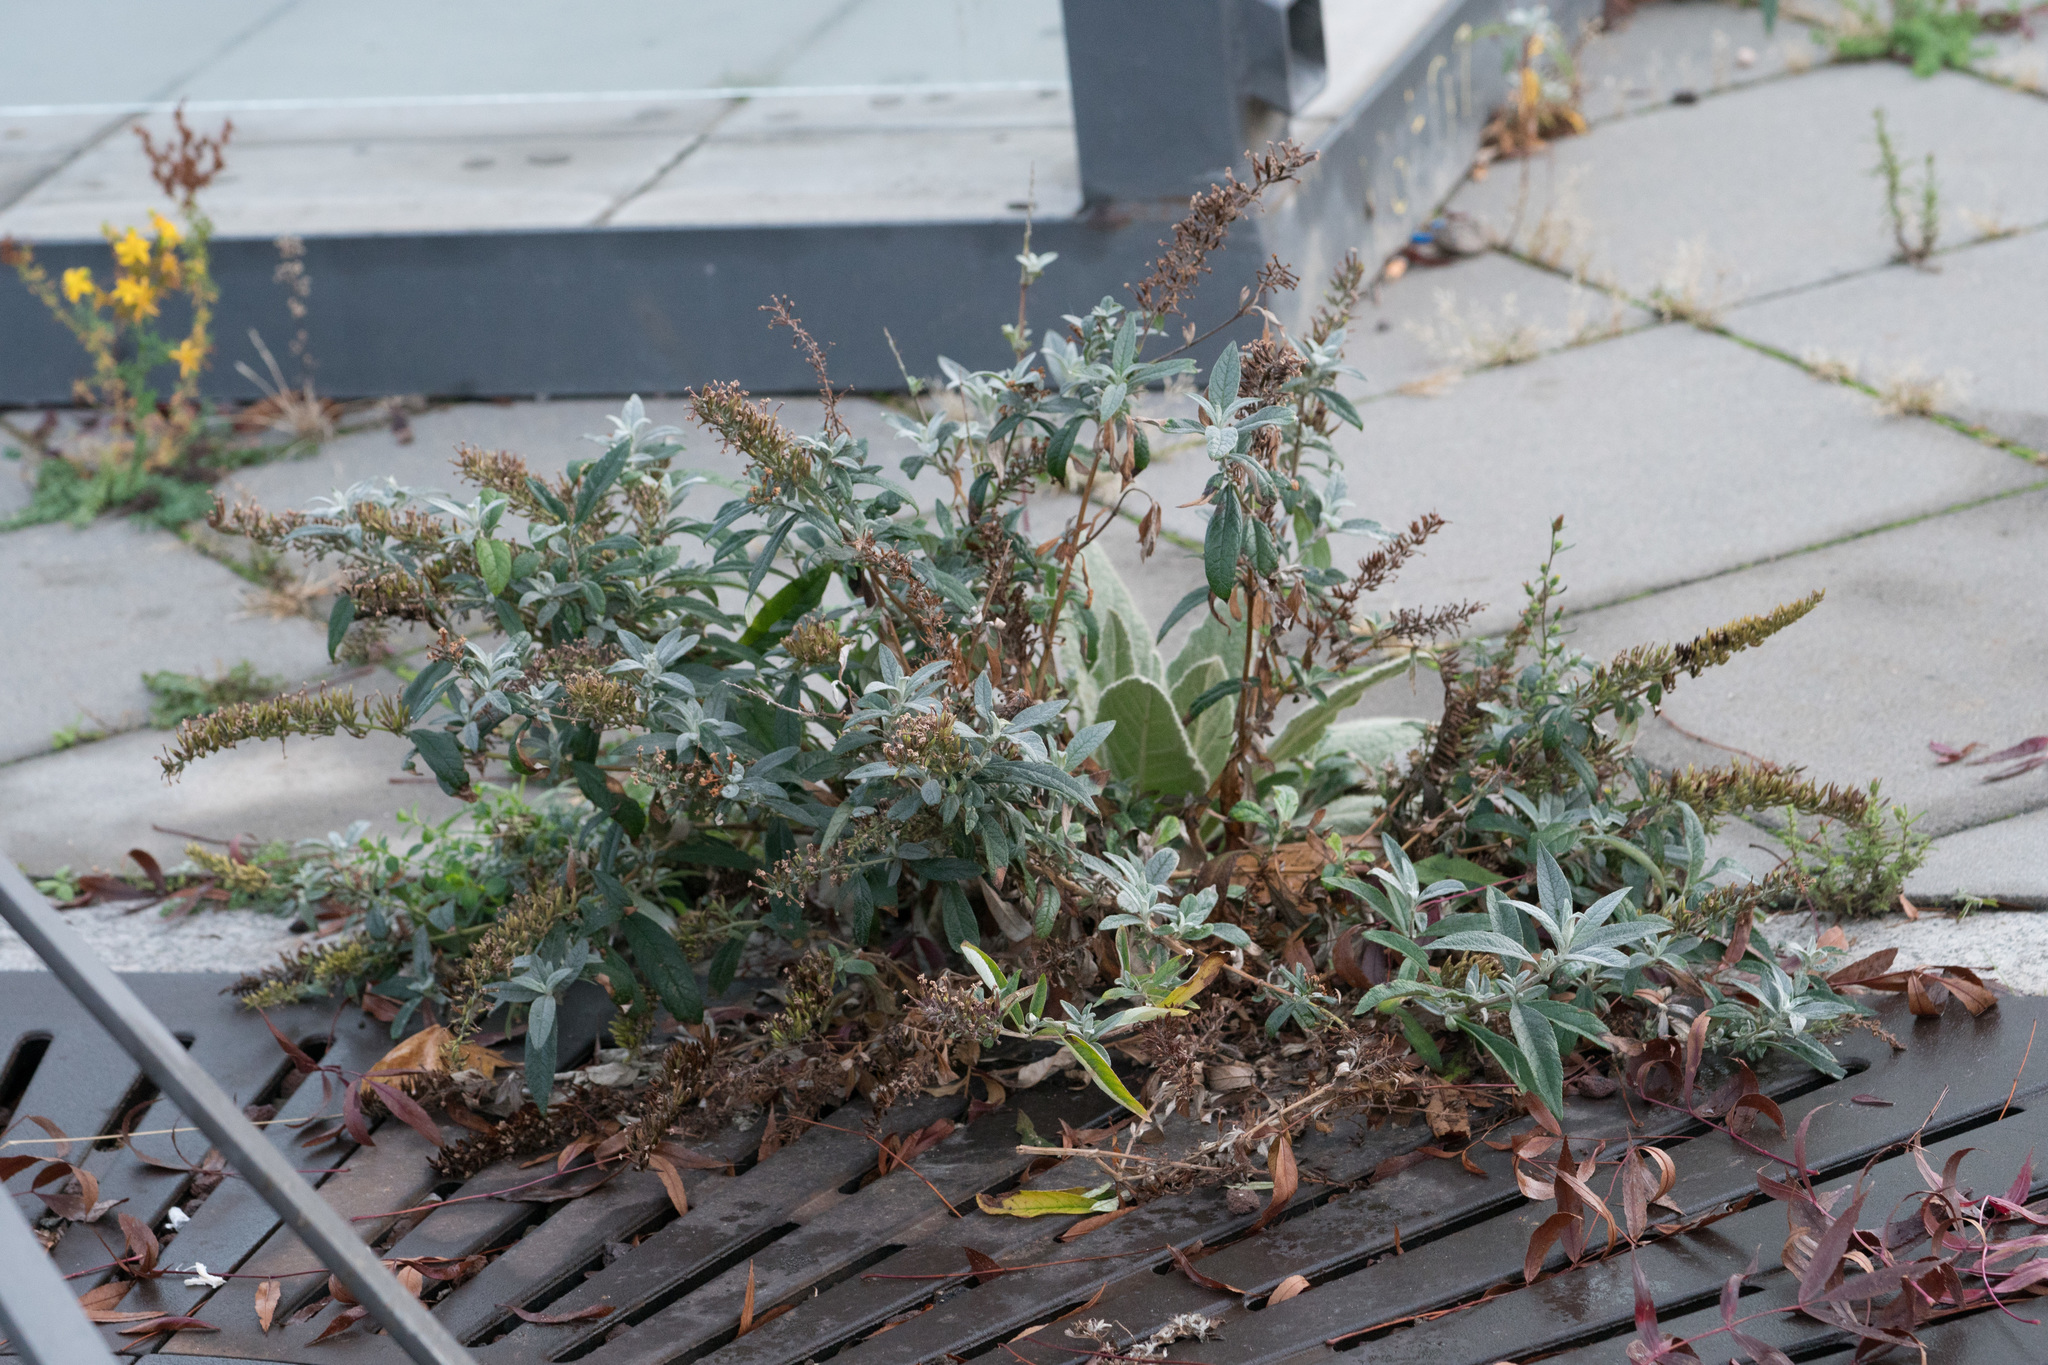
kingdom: Plantae
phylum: Tracheophyta
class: Magnoliopsida
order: Lamiales
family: Scrophulariaceae
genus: Buddleja
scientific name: Buddleja davidii
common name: Butterfly-bush
